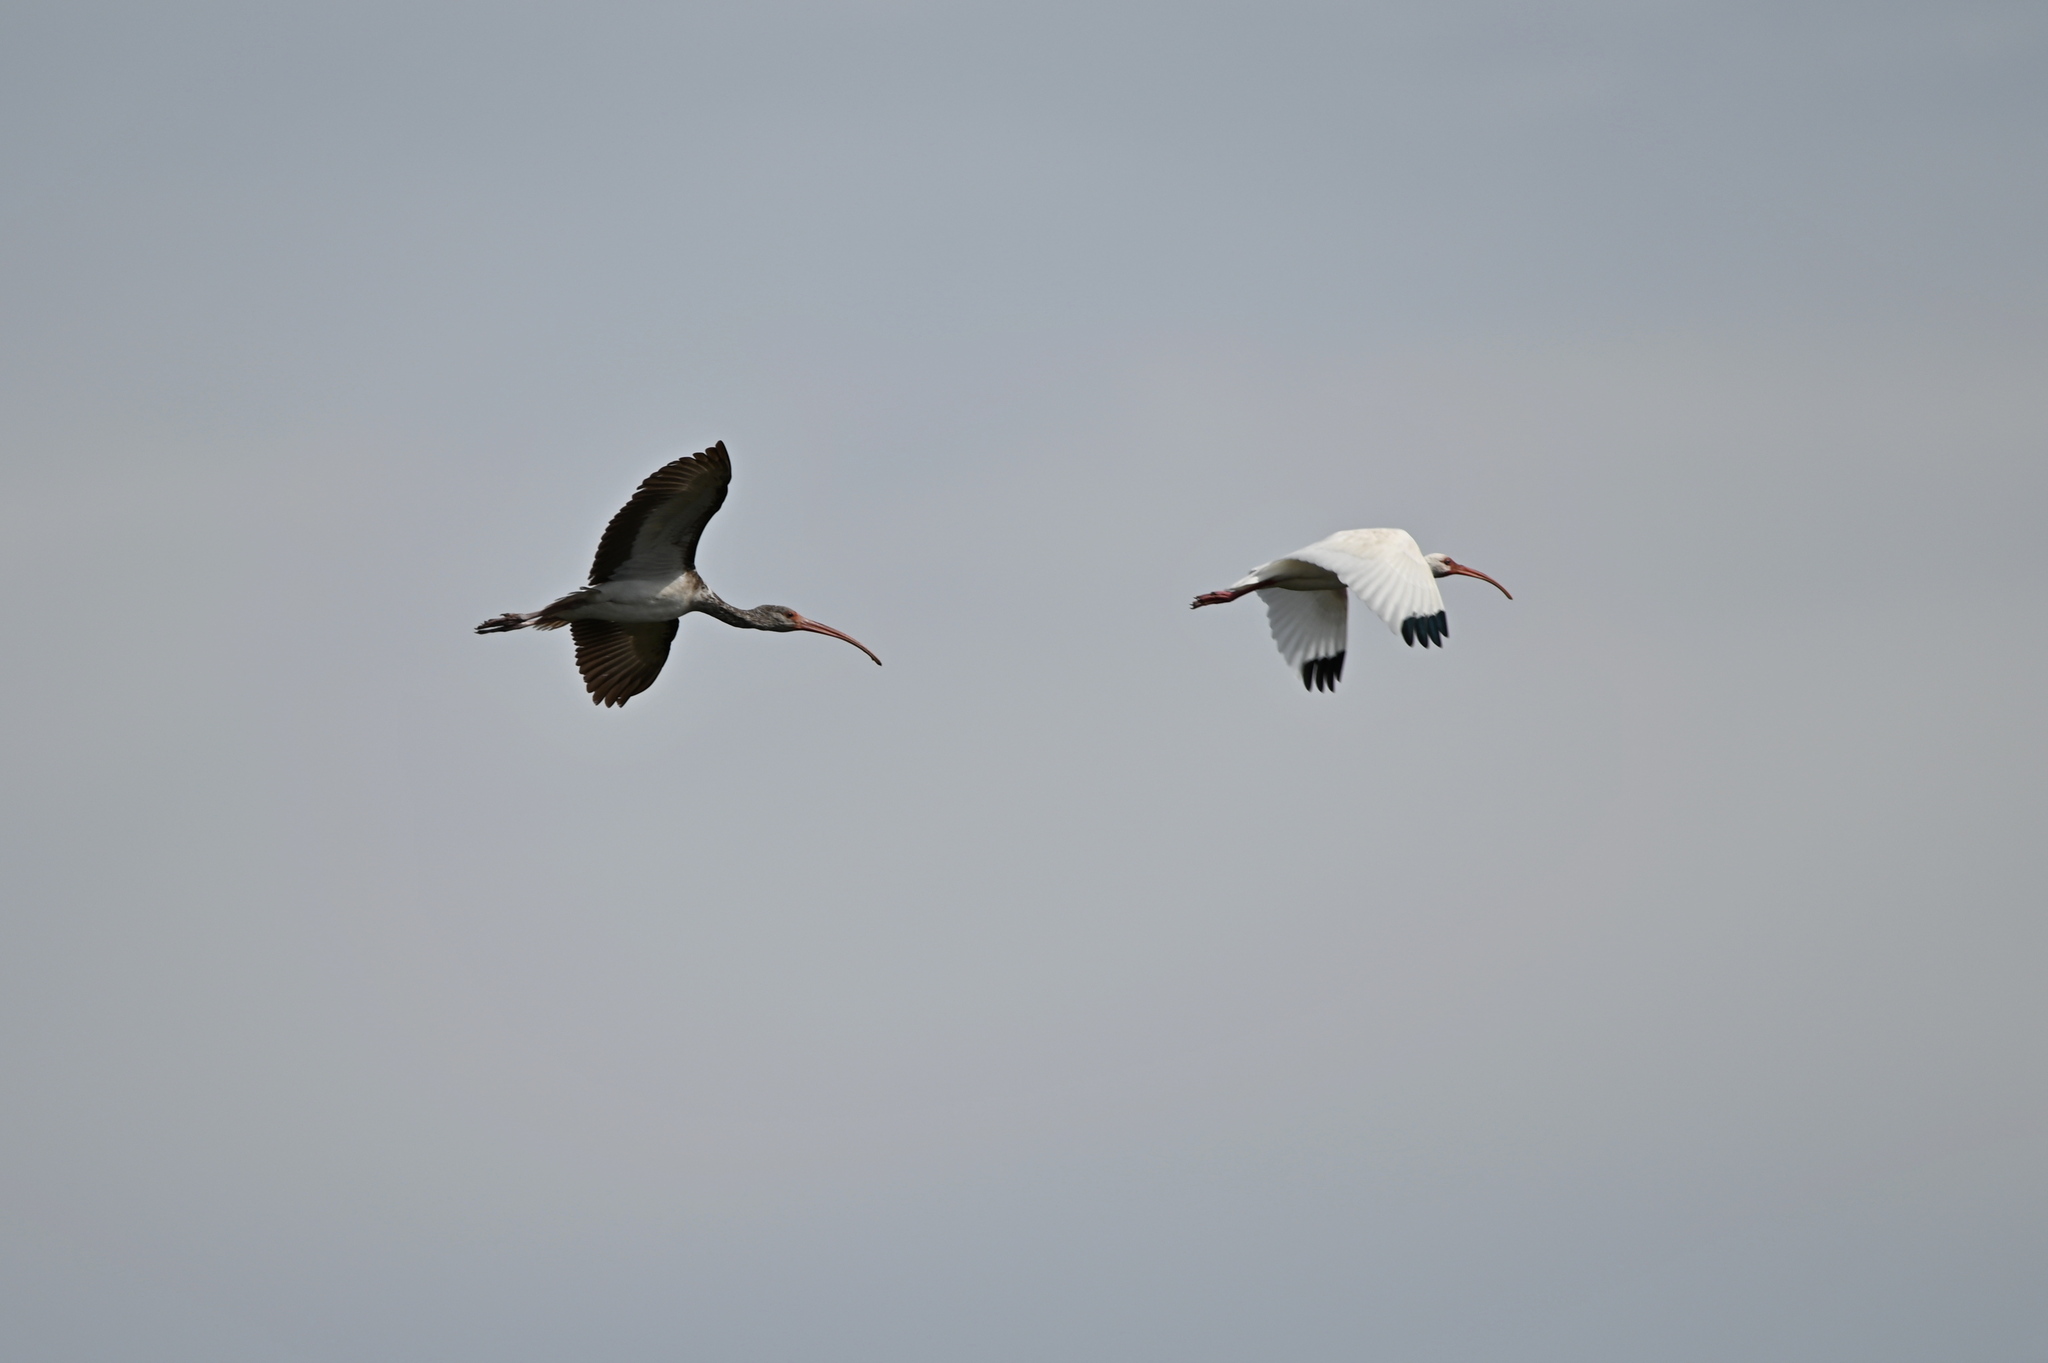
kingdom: Animalia
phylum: Chordata
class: Aves
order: Pelecaniformes
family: Threskiornithidae
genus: Eudocimus
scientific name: Eudocimus albus
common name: White ibis
